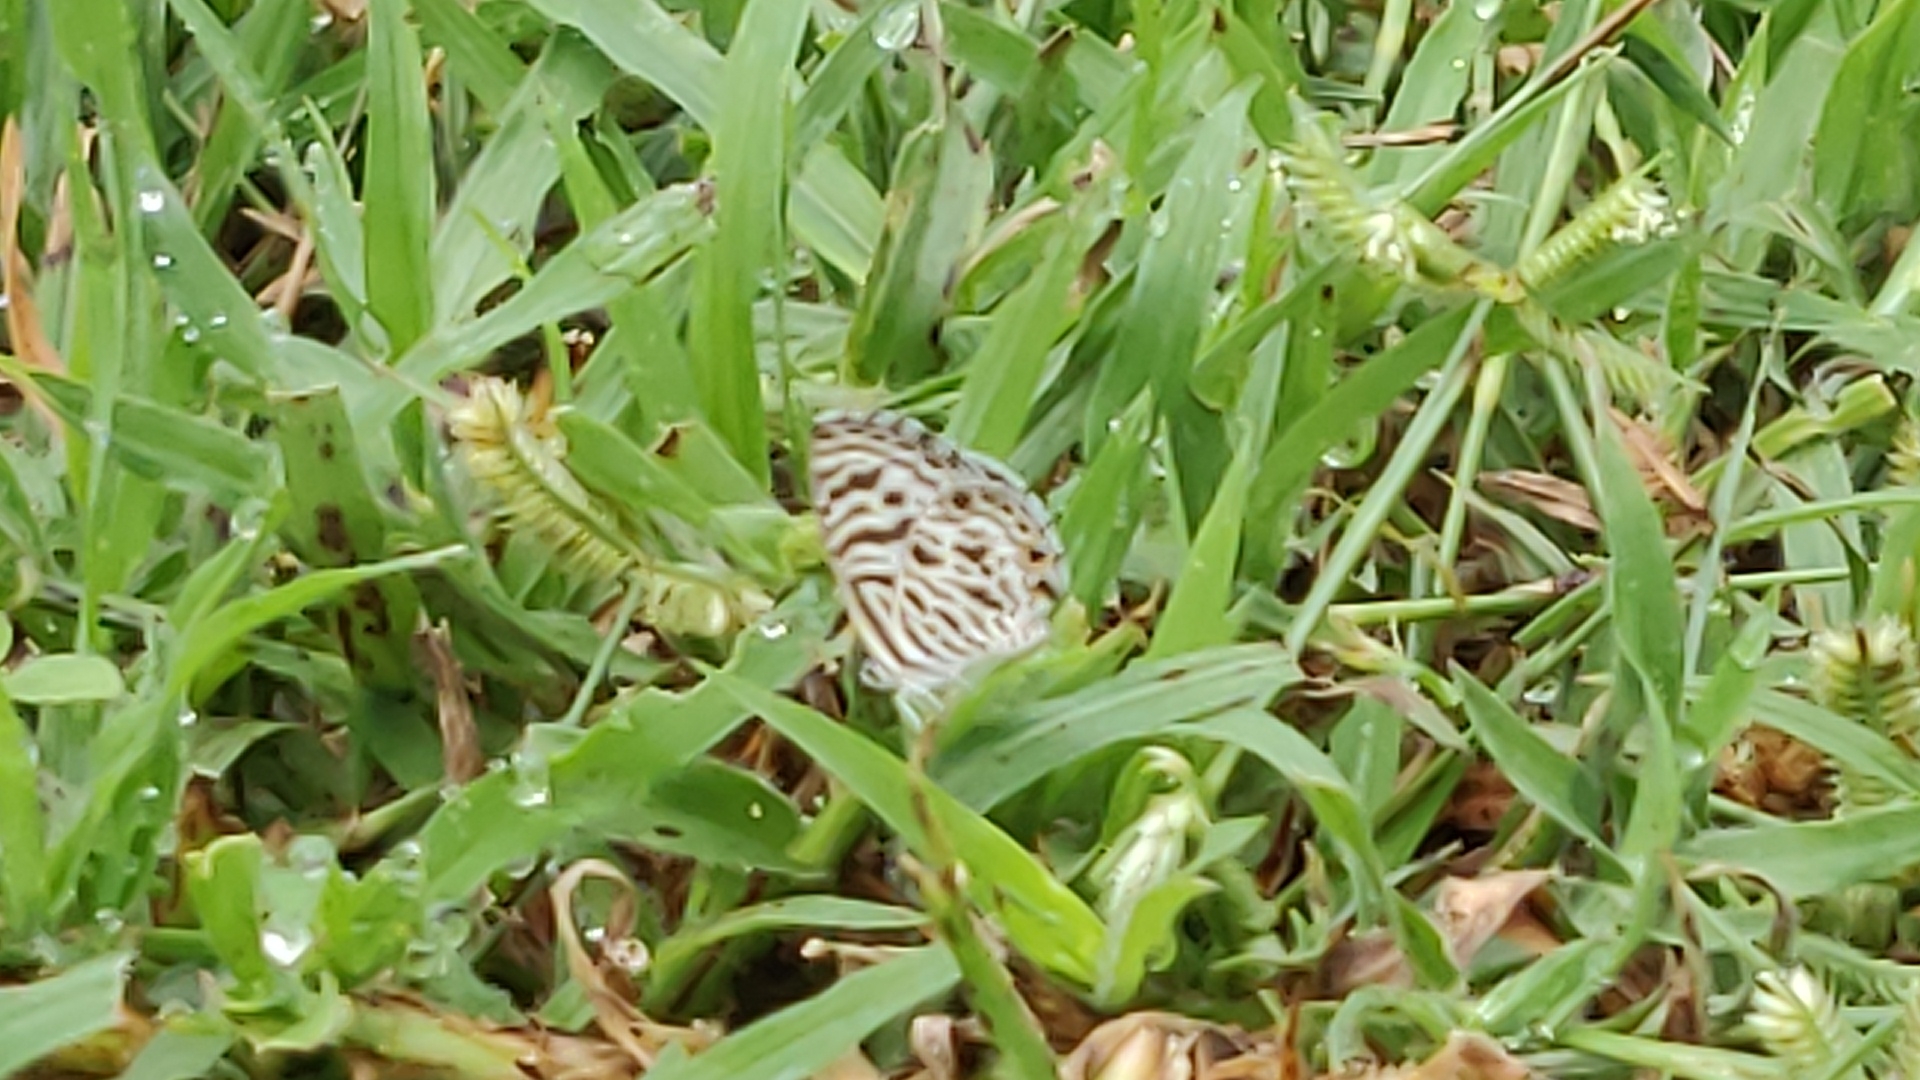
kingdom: Animalia
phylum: Arthropoda
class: Insecta
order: Lepidoptera
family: Lycaenidae
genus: Leptotes
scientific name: Leptotes plinius
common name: Zebra blue
